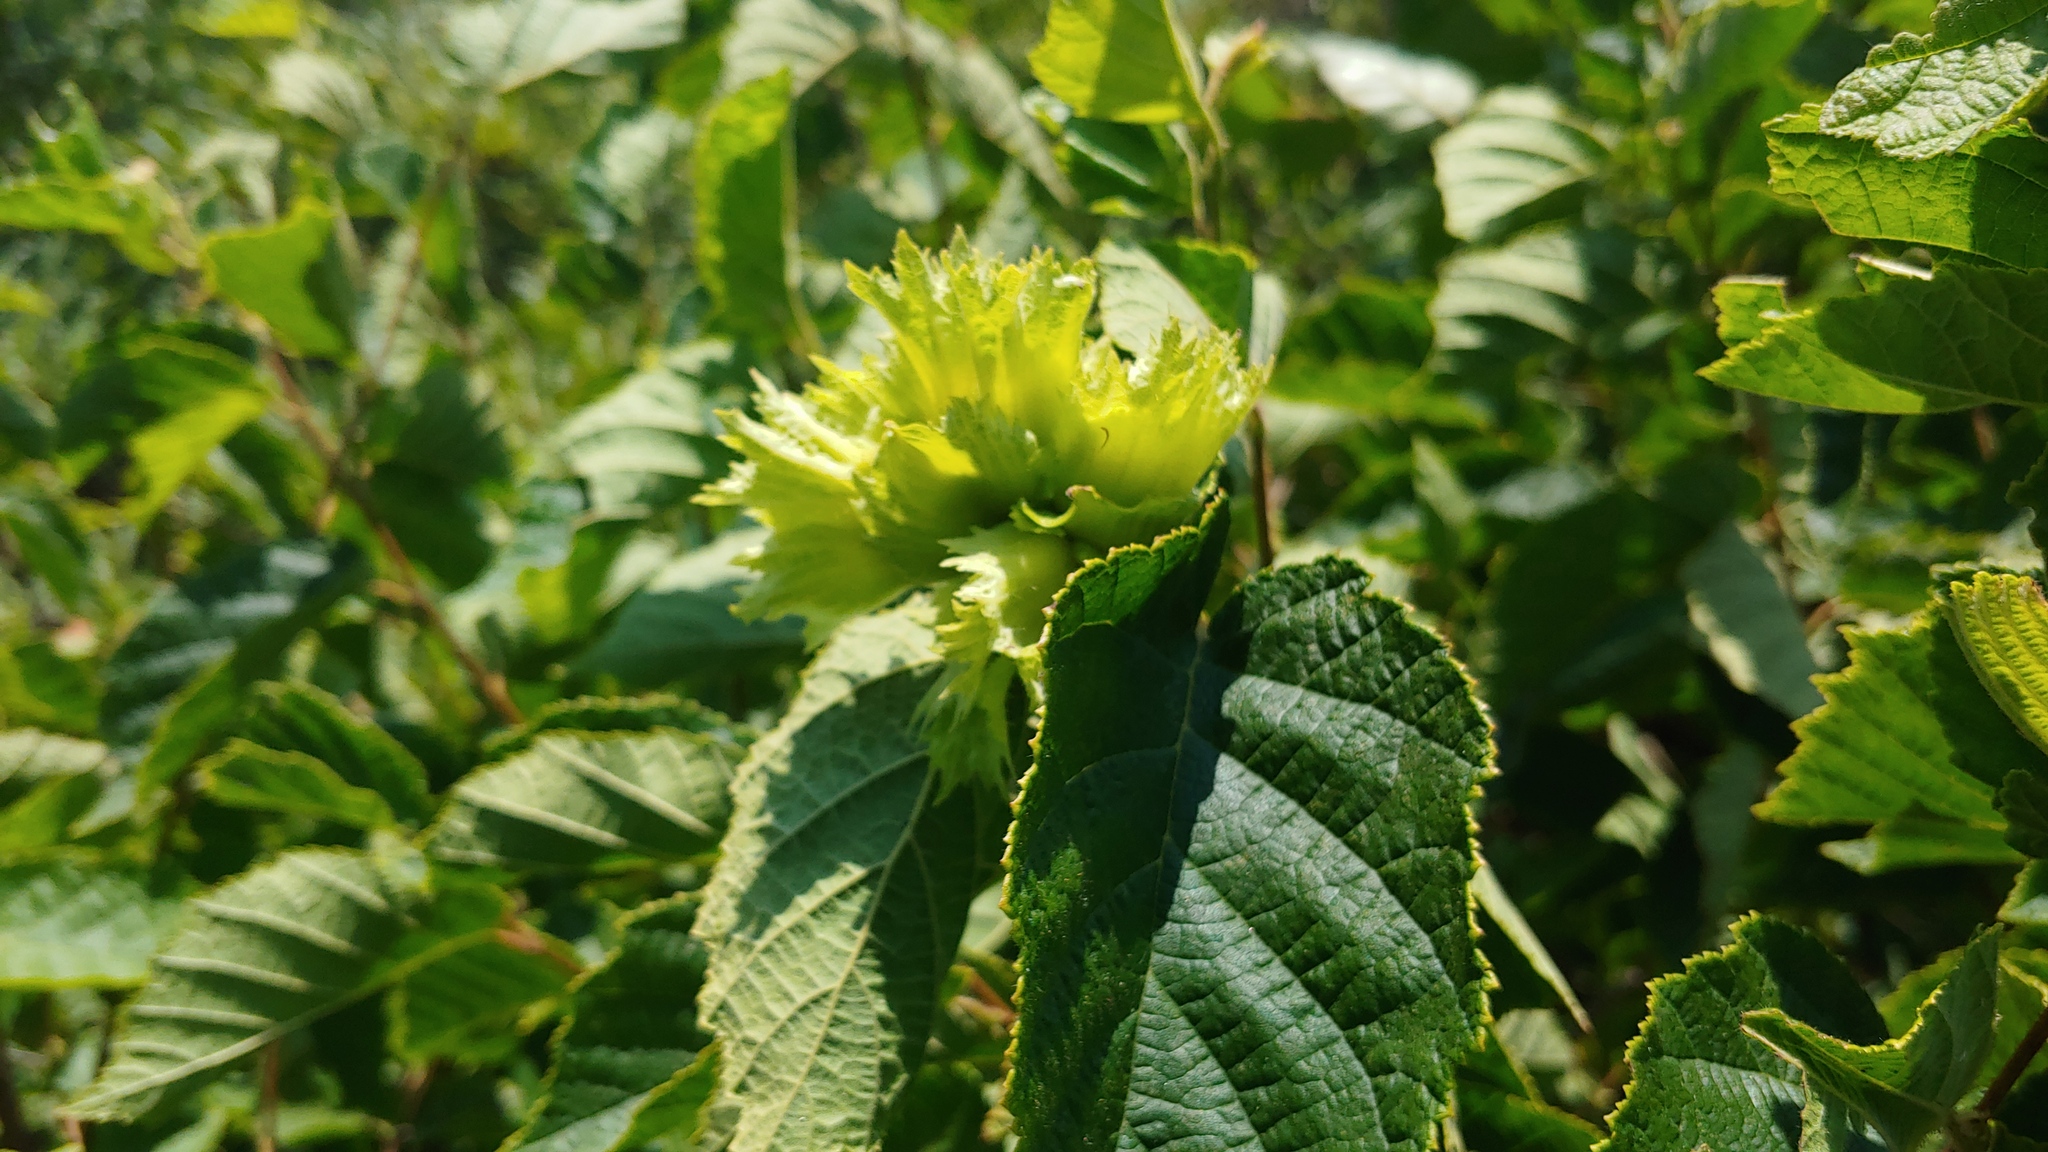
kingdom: Plantae
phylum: Tracheophyta
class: Magnoliopsida
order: Fagales
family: Betulaceae
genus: Corylus
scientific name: Corylus americana
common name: American hazel
